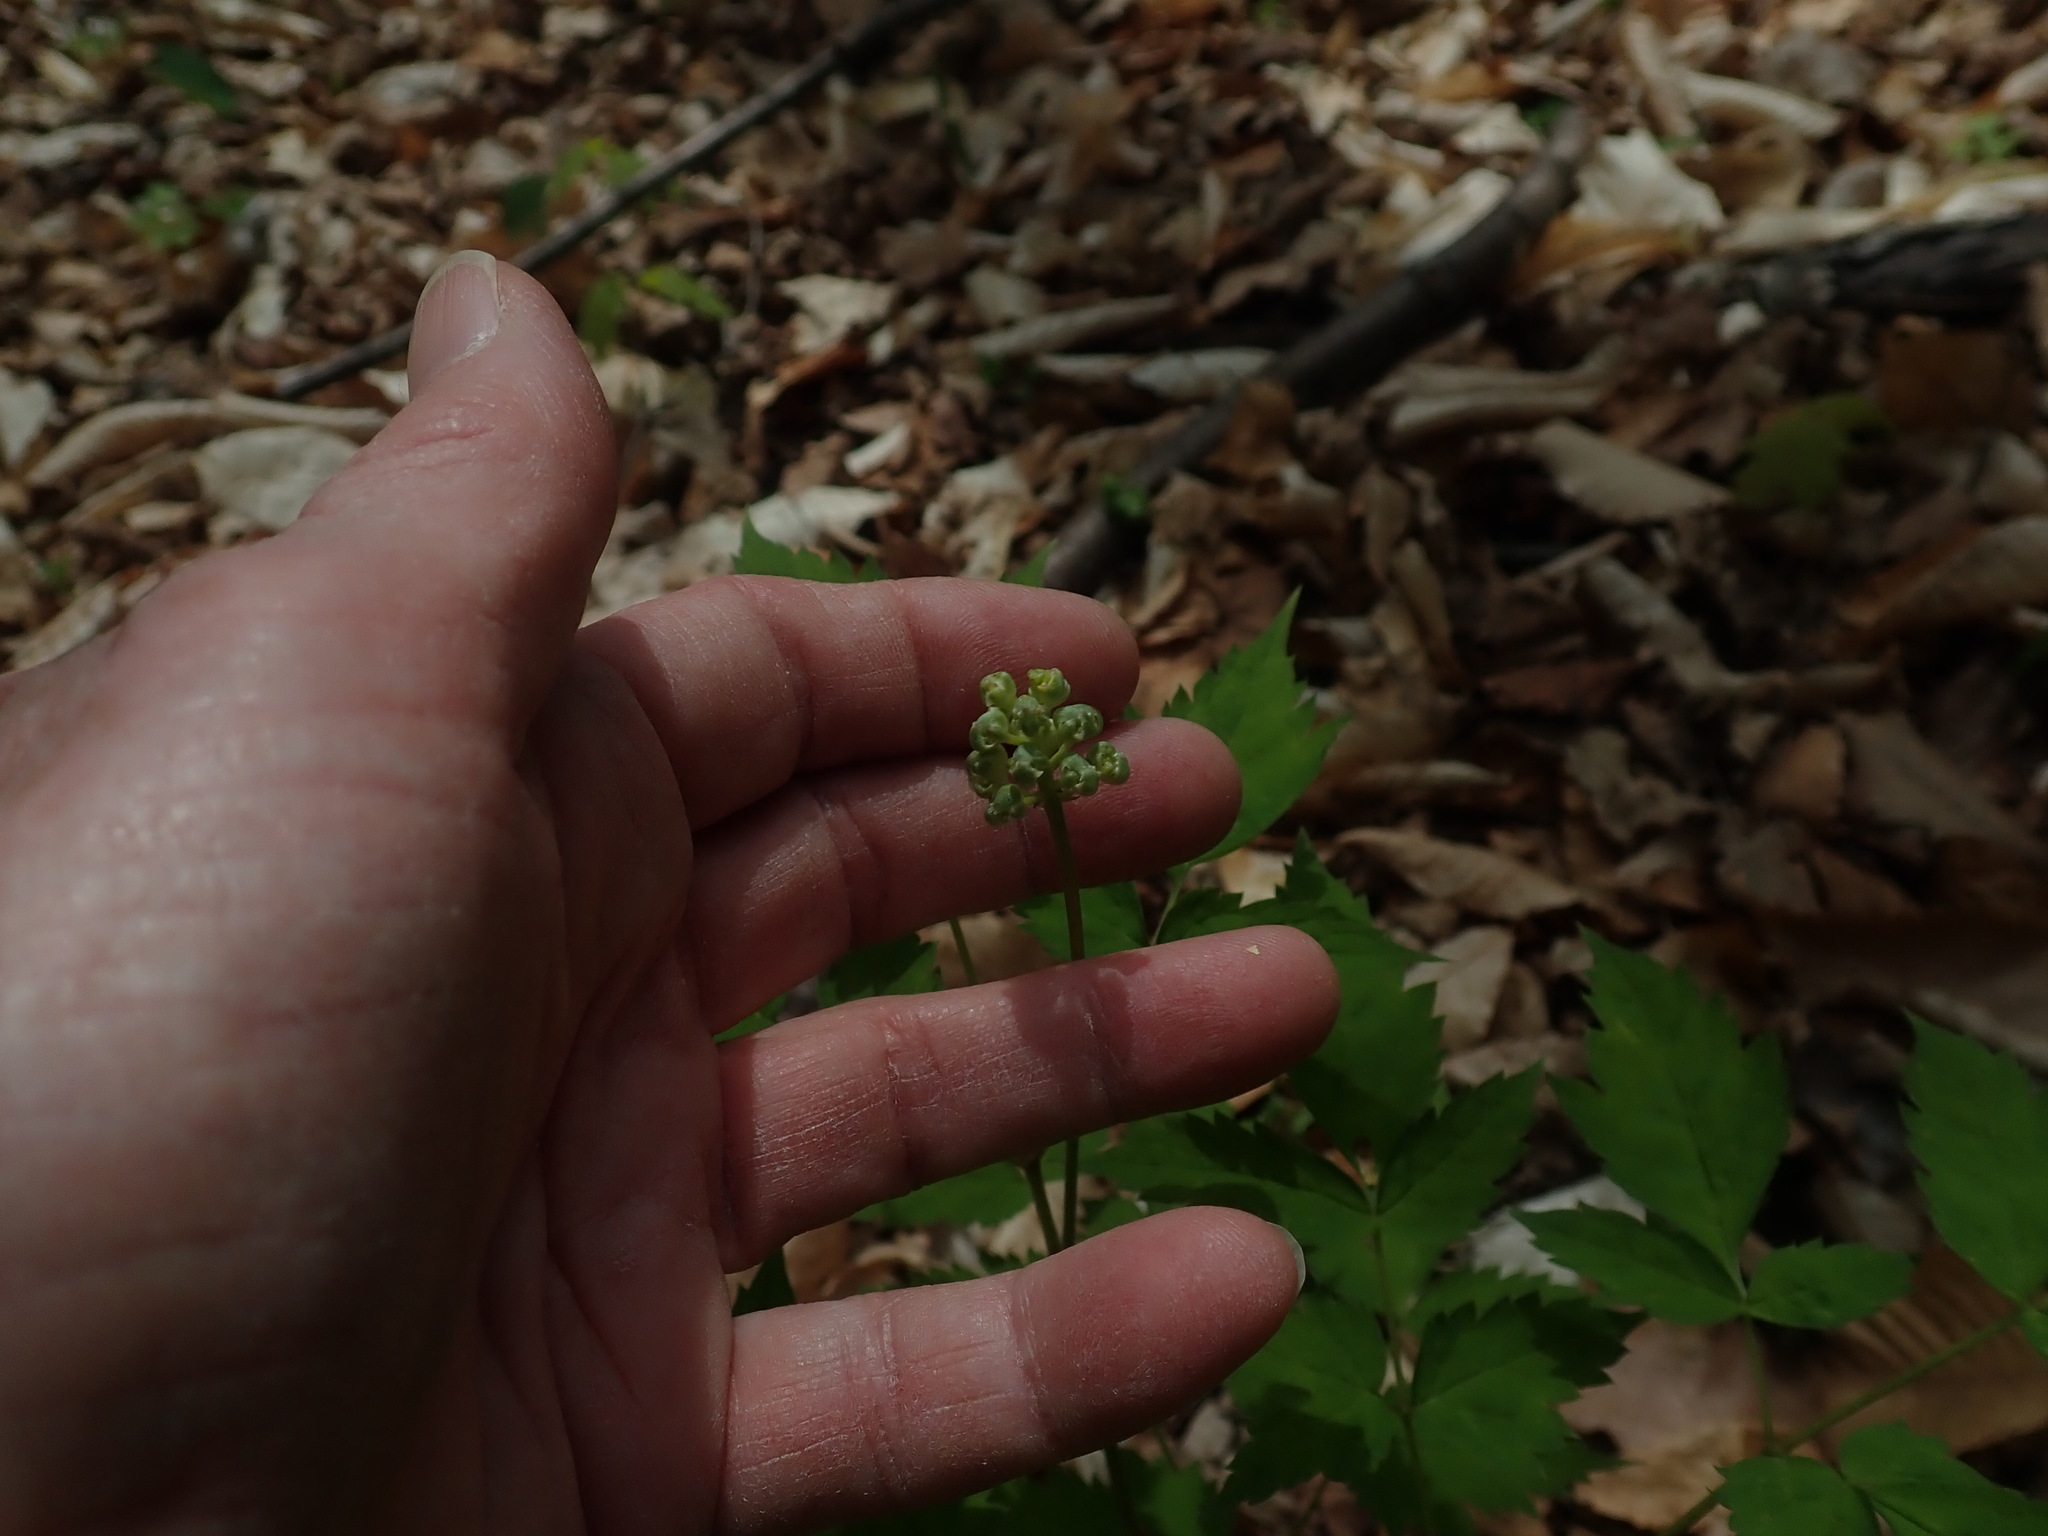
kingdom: Plantae
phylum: Tracheophyta
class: Magnoliopsida
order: Ranunculales
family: Ranunculaceae
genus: Actaea
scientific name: Actaea pachypoda
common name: Doll's-eyes
